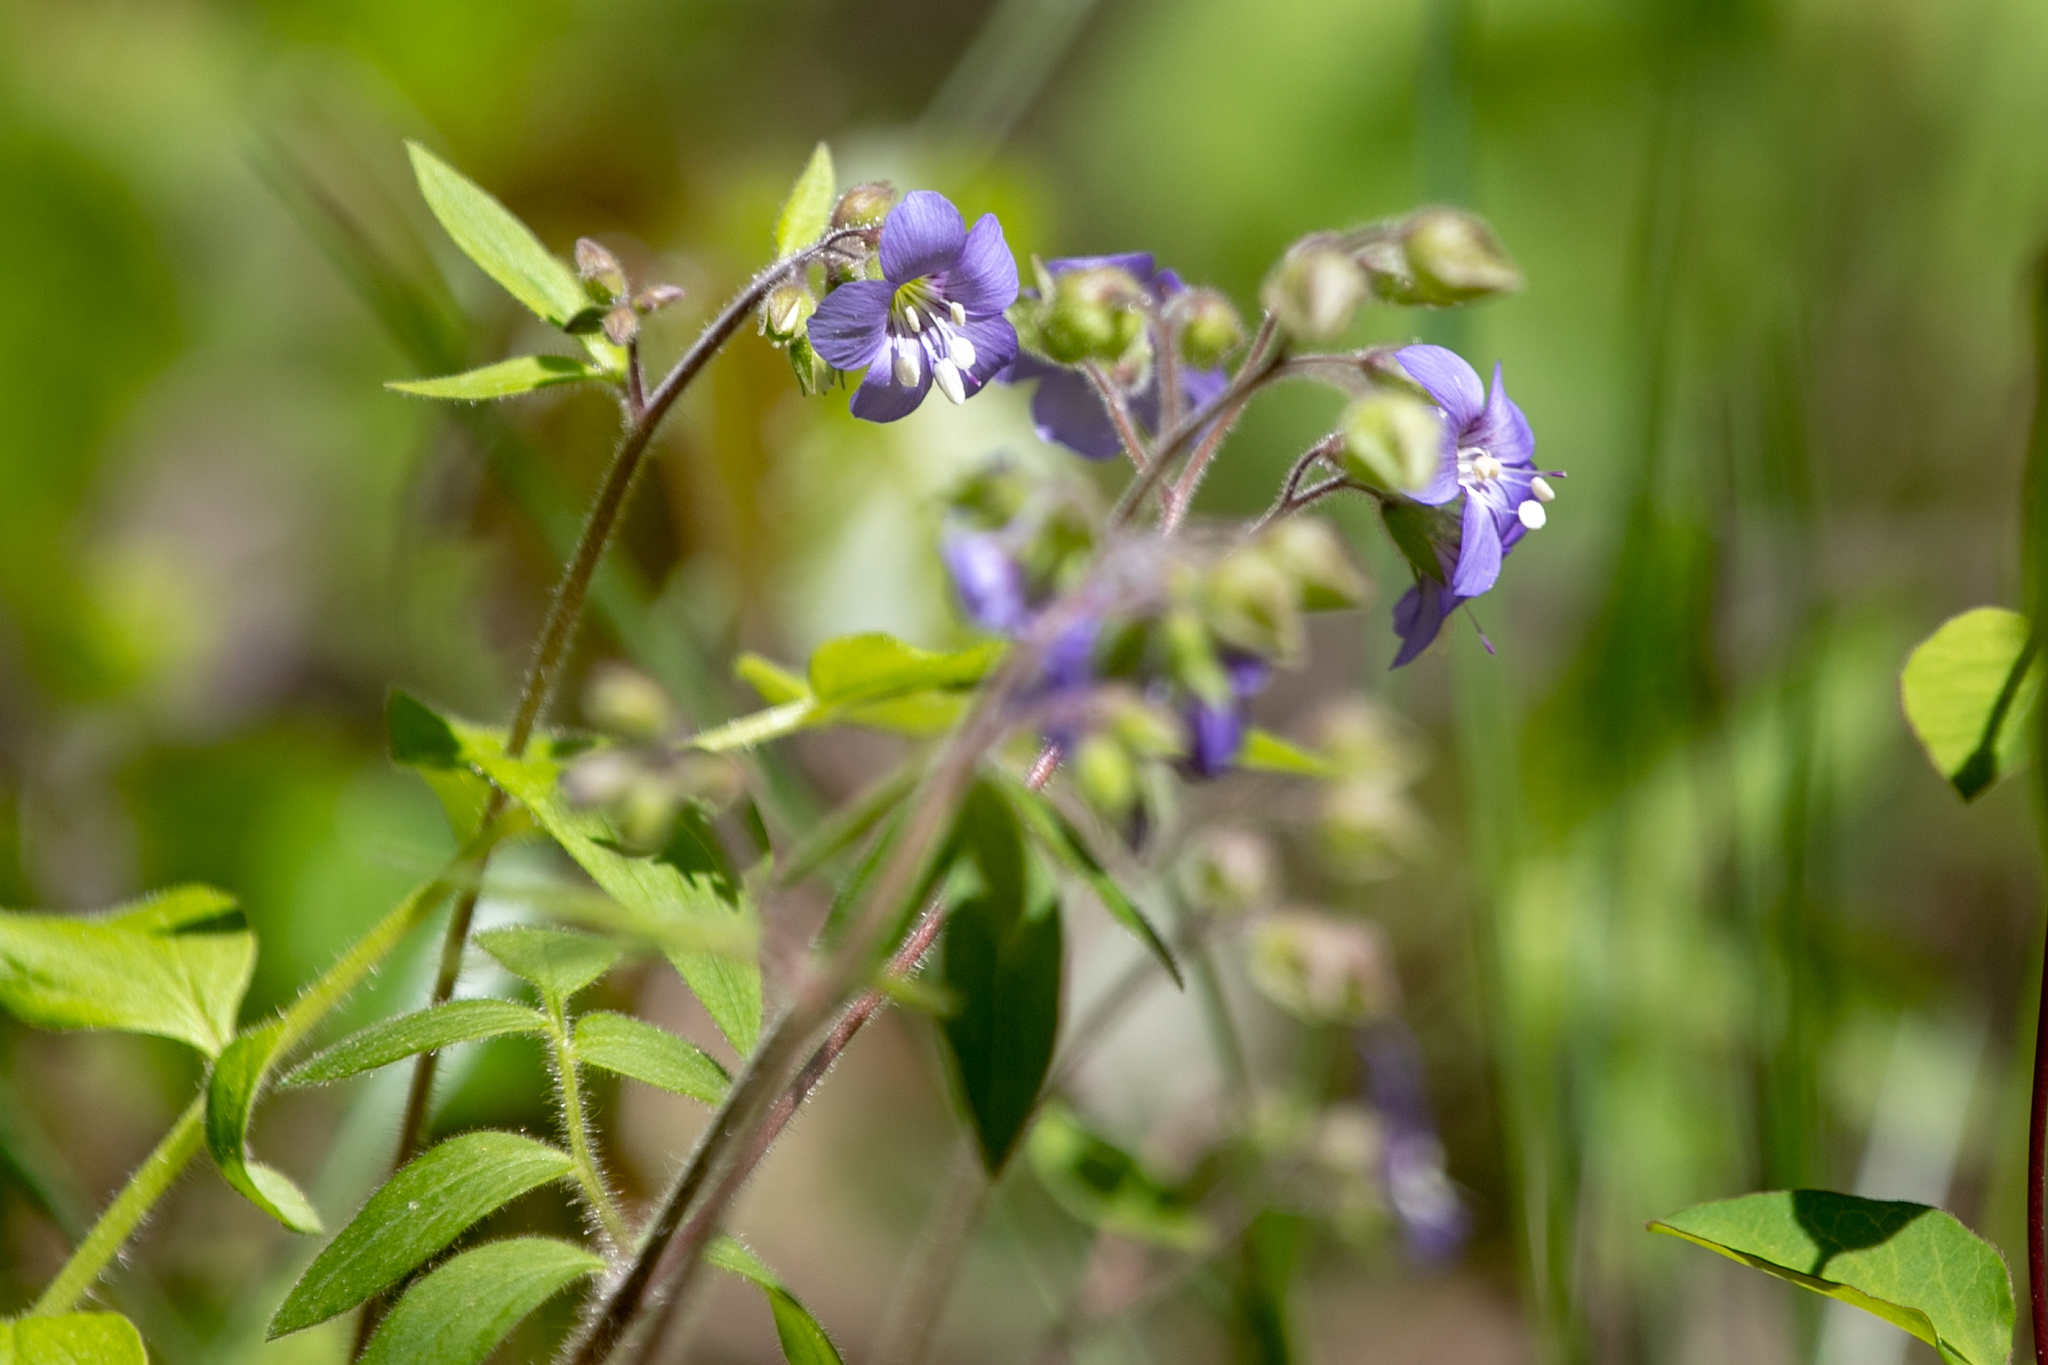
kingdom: Plantae
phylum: Tracheophyta
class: Magnoliopsida
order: Ericales
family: Polemoniaceae
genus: Polemonium
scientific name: Polemonium reptans
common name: Creeping jacob's-ladder
